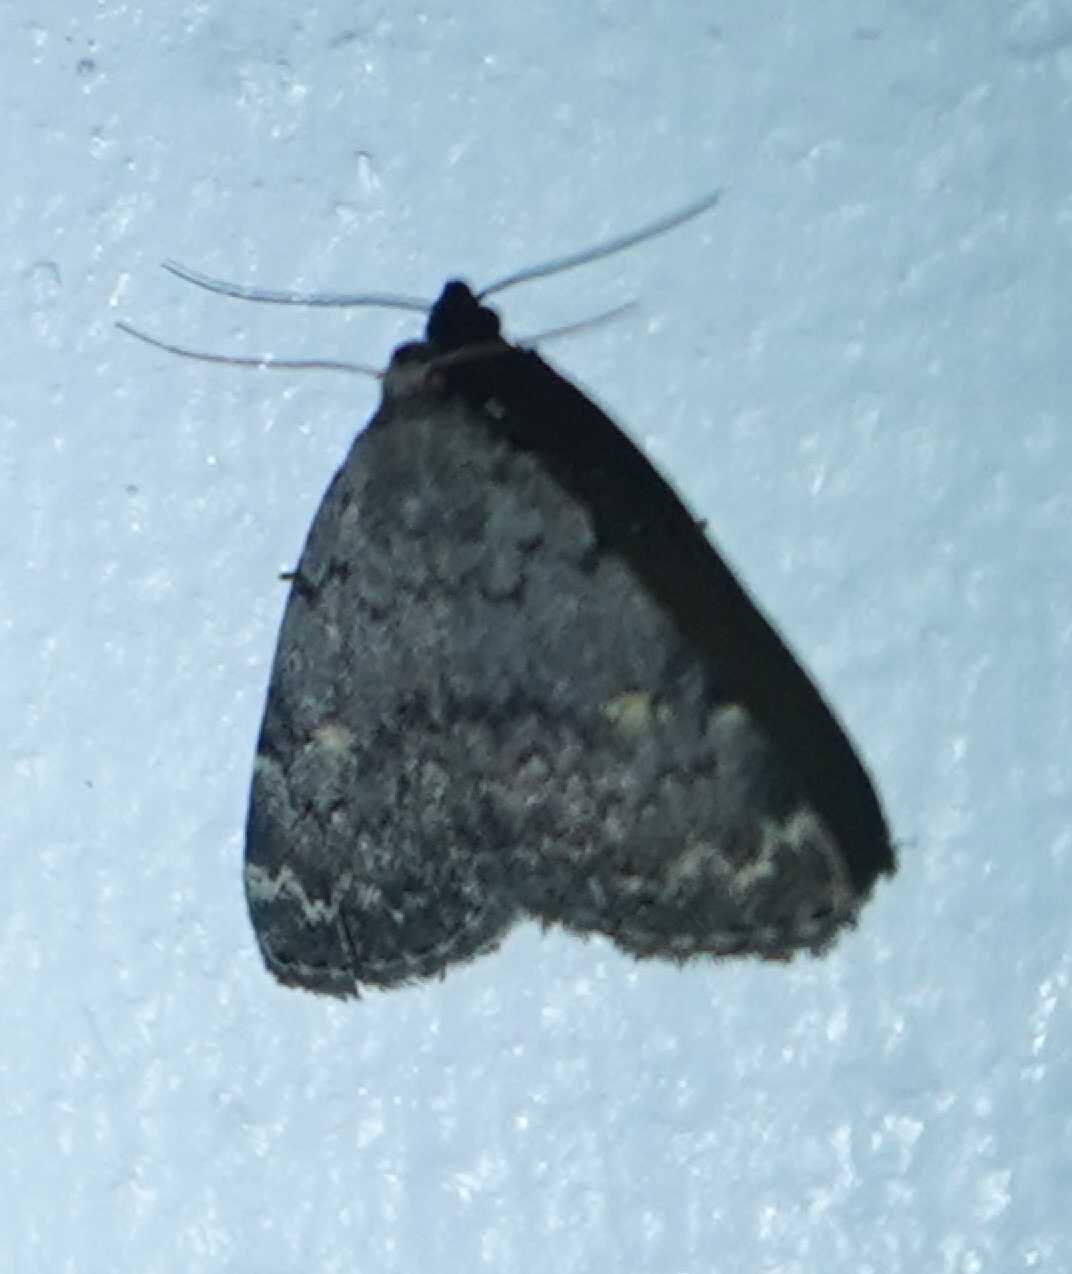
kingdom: Animalia
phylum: Arthropoda
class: Insecta
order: Lepidoptera
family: Erebidae
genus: Idia
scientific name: Idia aemula
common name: Common idia moth
